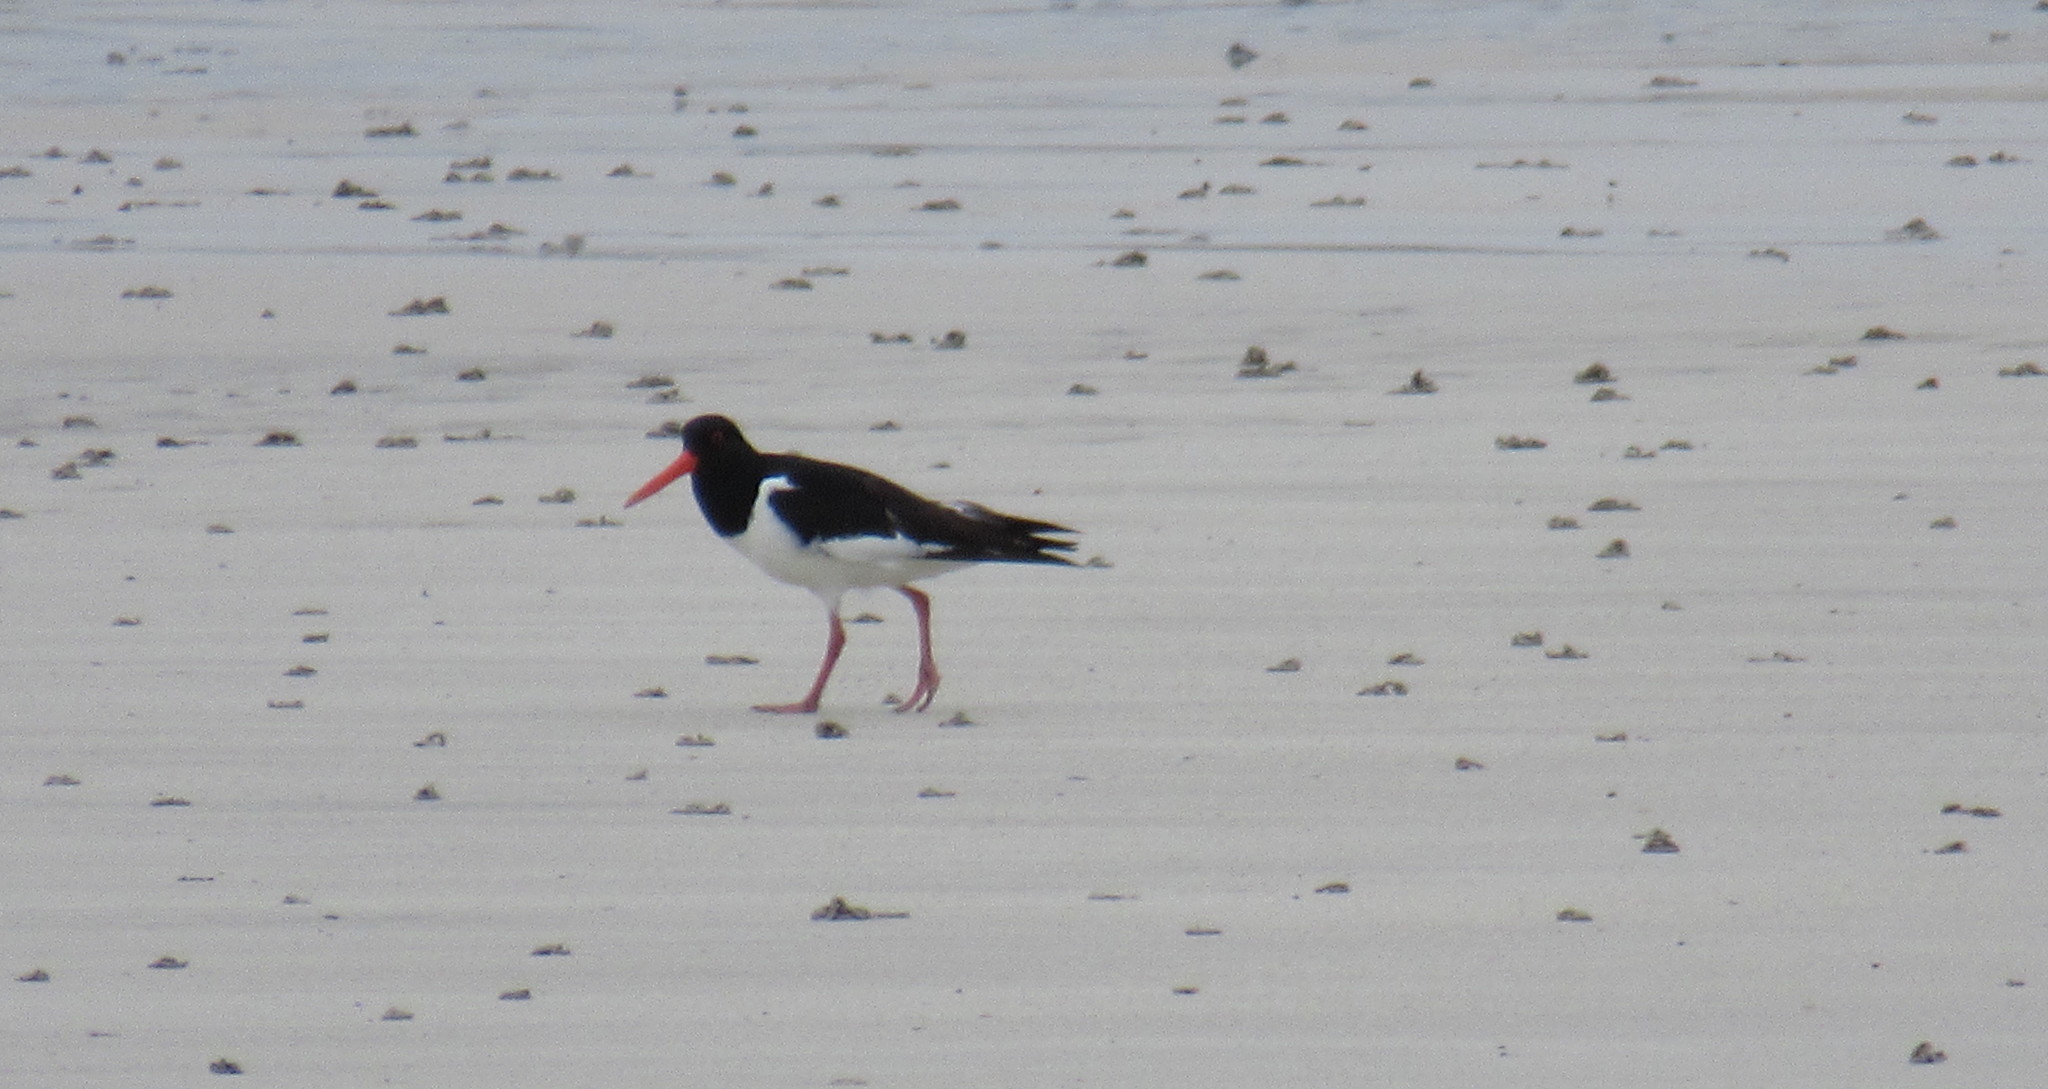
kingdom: Animalia
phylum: Chordata
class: Aves
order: Charadriiformes
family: Haematopodidae
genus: Haematopus
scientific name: Haematopus ostralegus
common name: Eurasian oystercatcher
